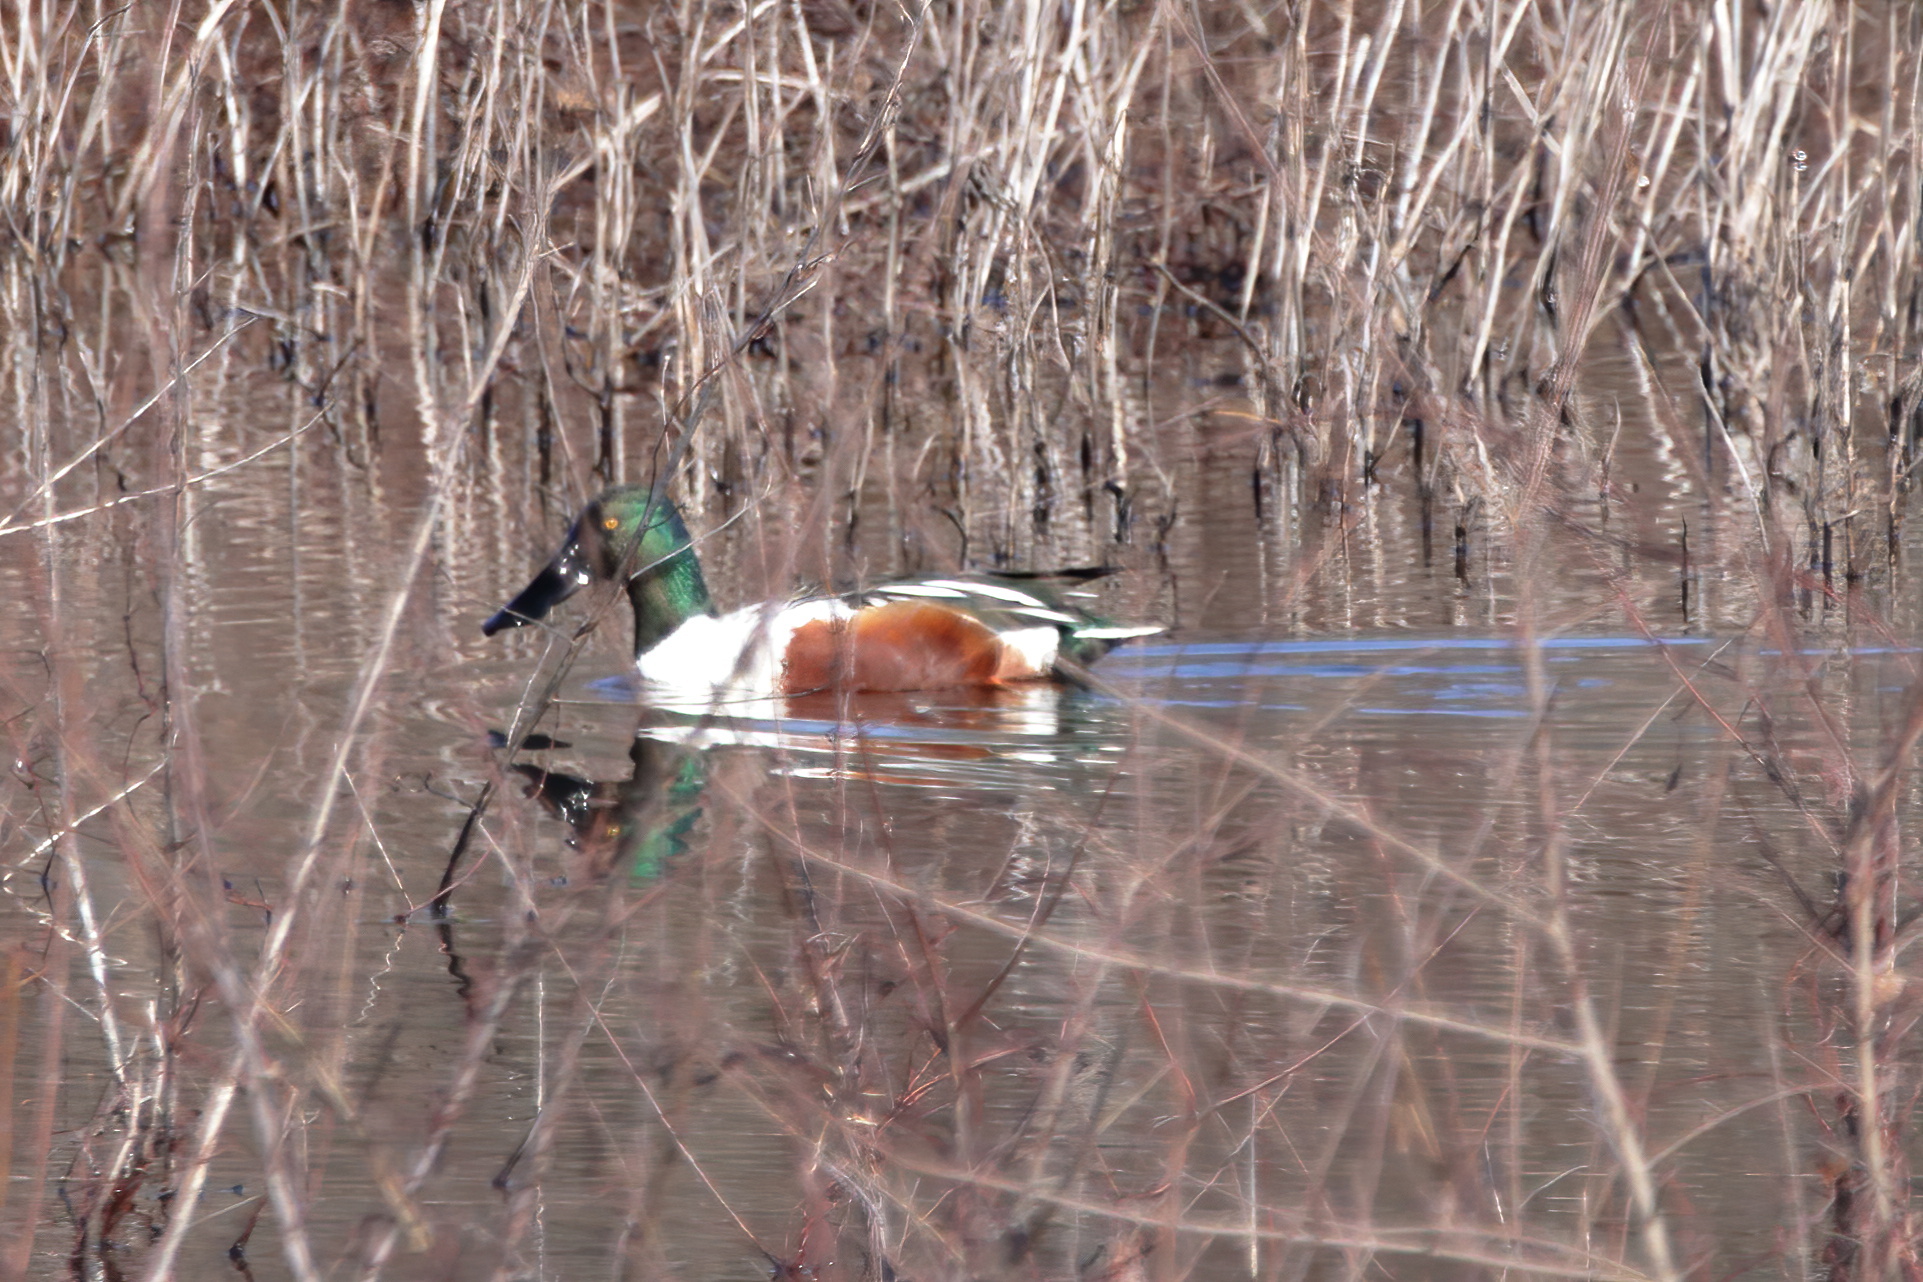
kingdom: Animalia
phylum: Chordata
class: Aves
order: Anseriformes
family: Anatidae
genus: Spatula
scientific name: Spatula clypeata
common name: Northern shoveler
